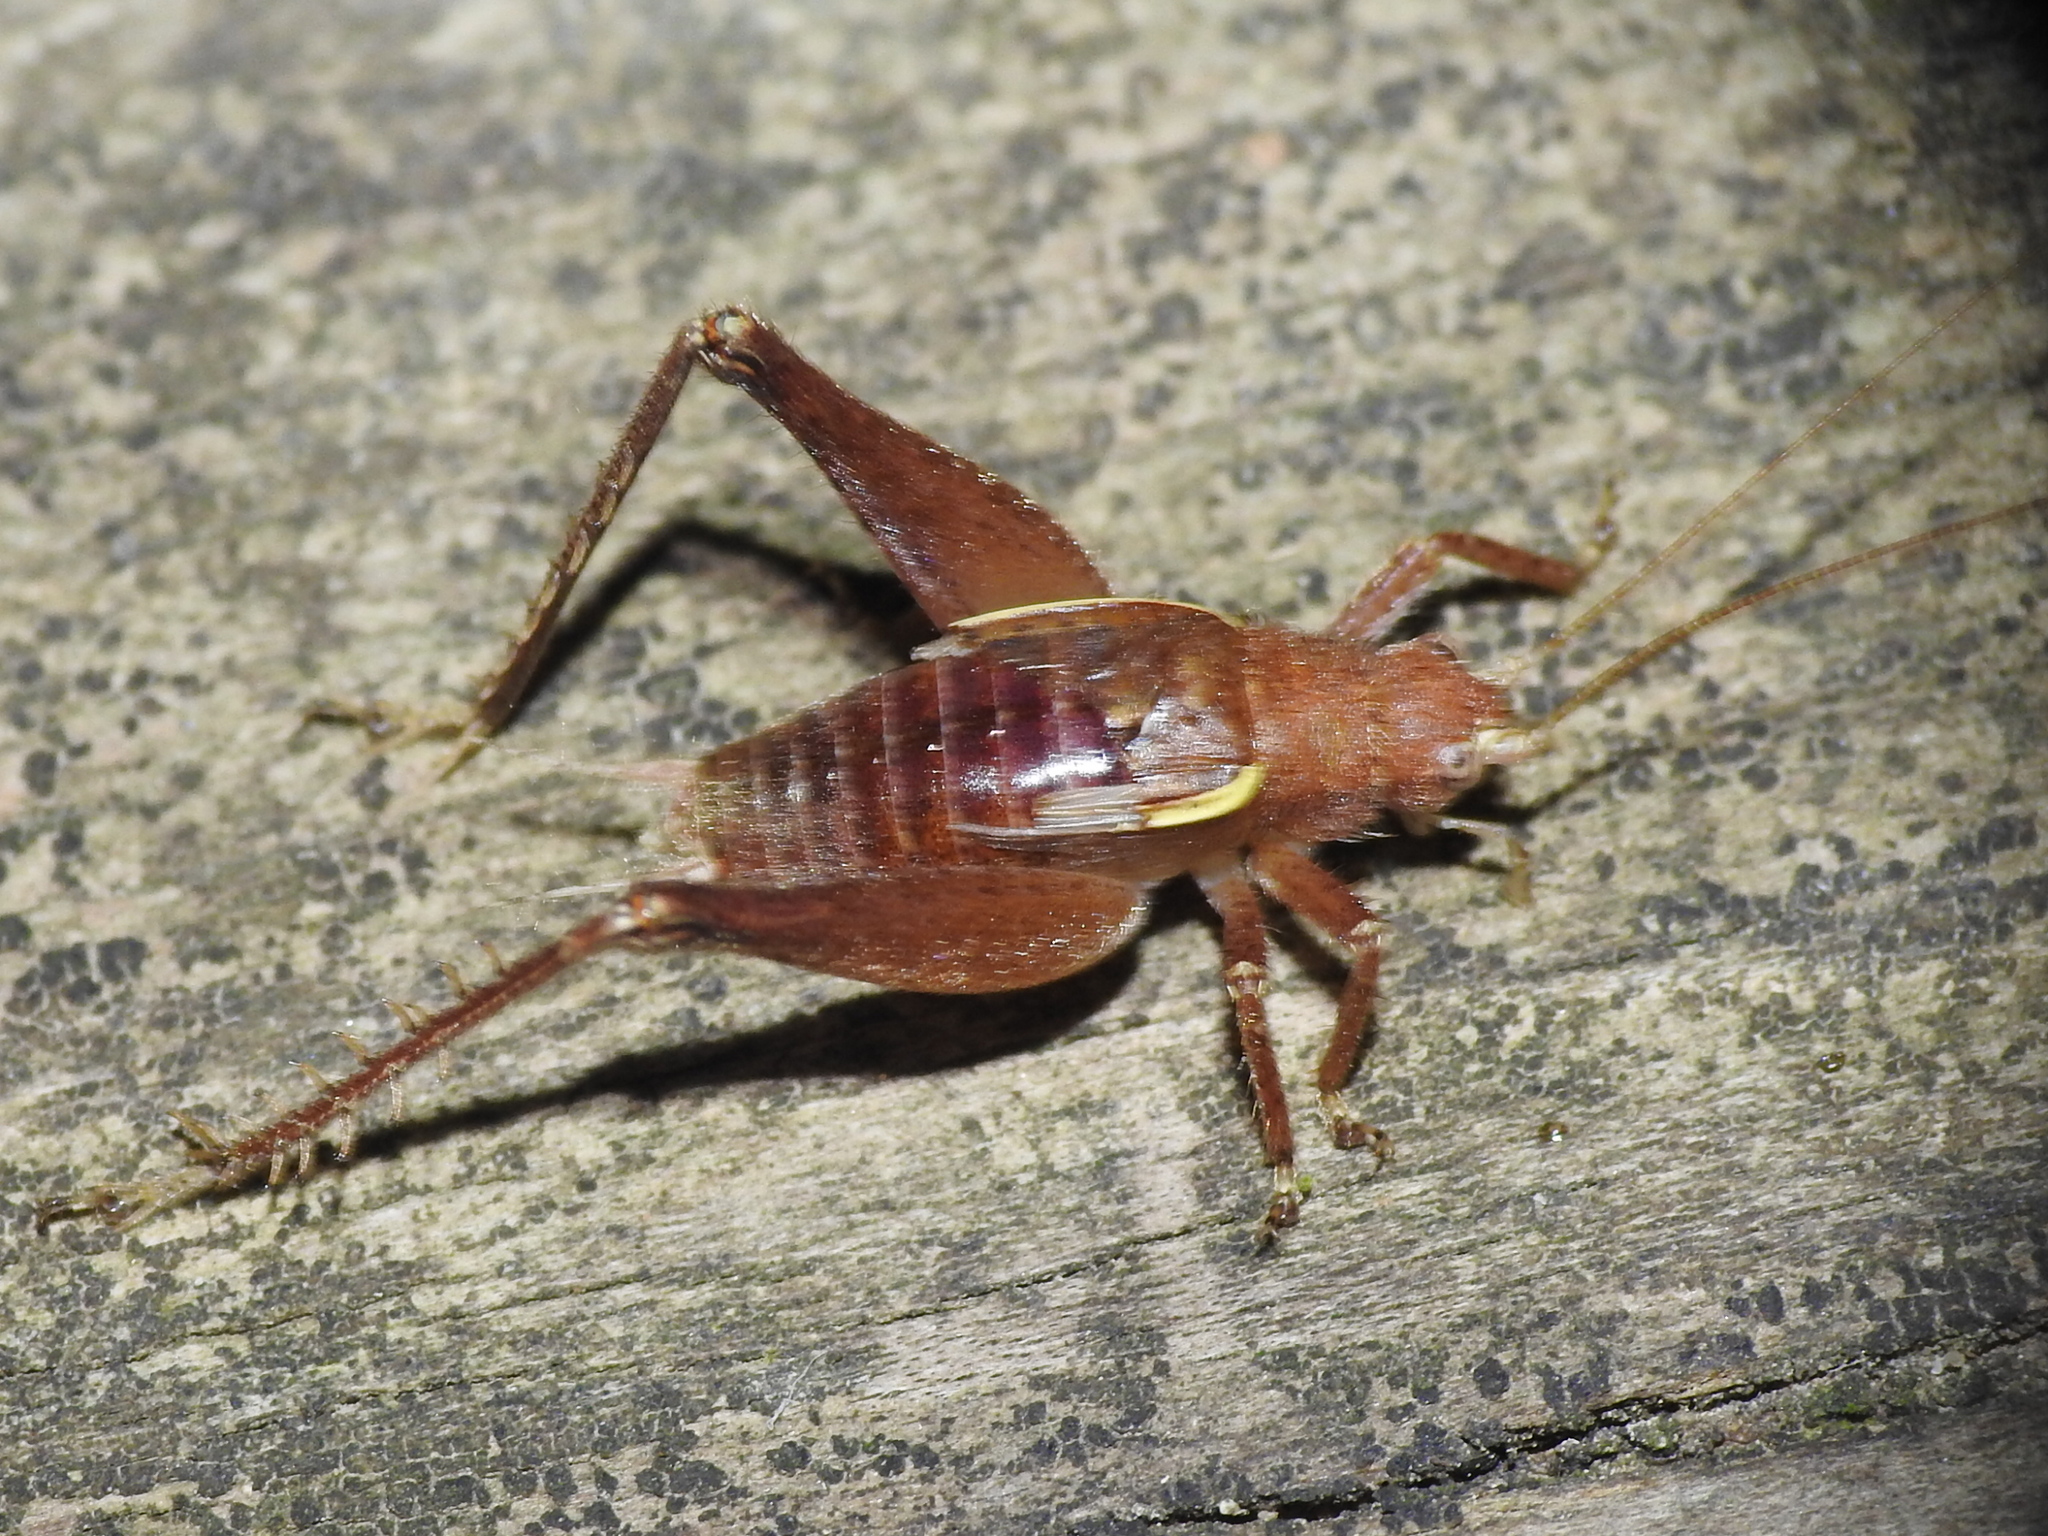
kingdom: Animalia
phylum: Arthropoda
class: Insecta
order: Orthoptera
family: Gryllidae
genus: Hapithus
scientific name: Hapithus agitator
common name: Restless bush cricket
